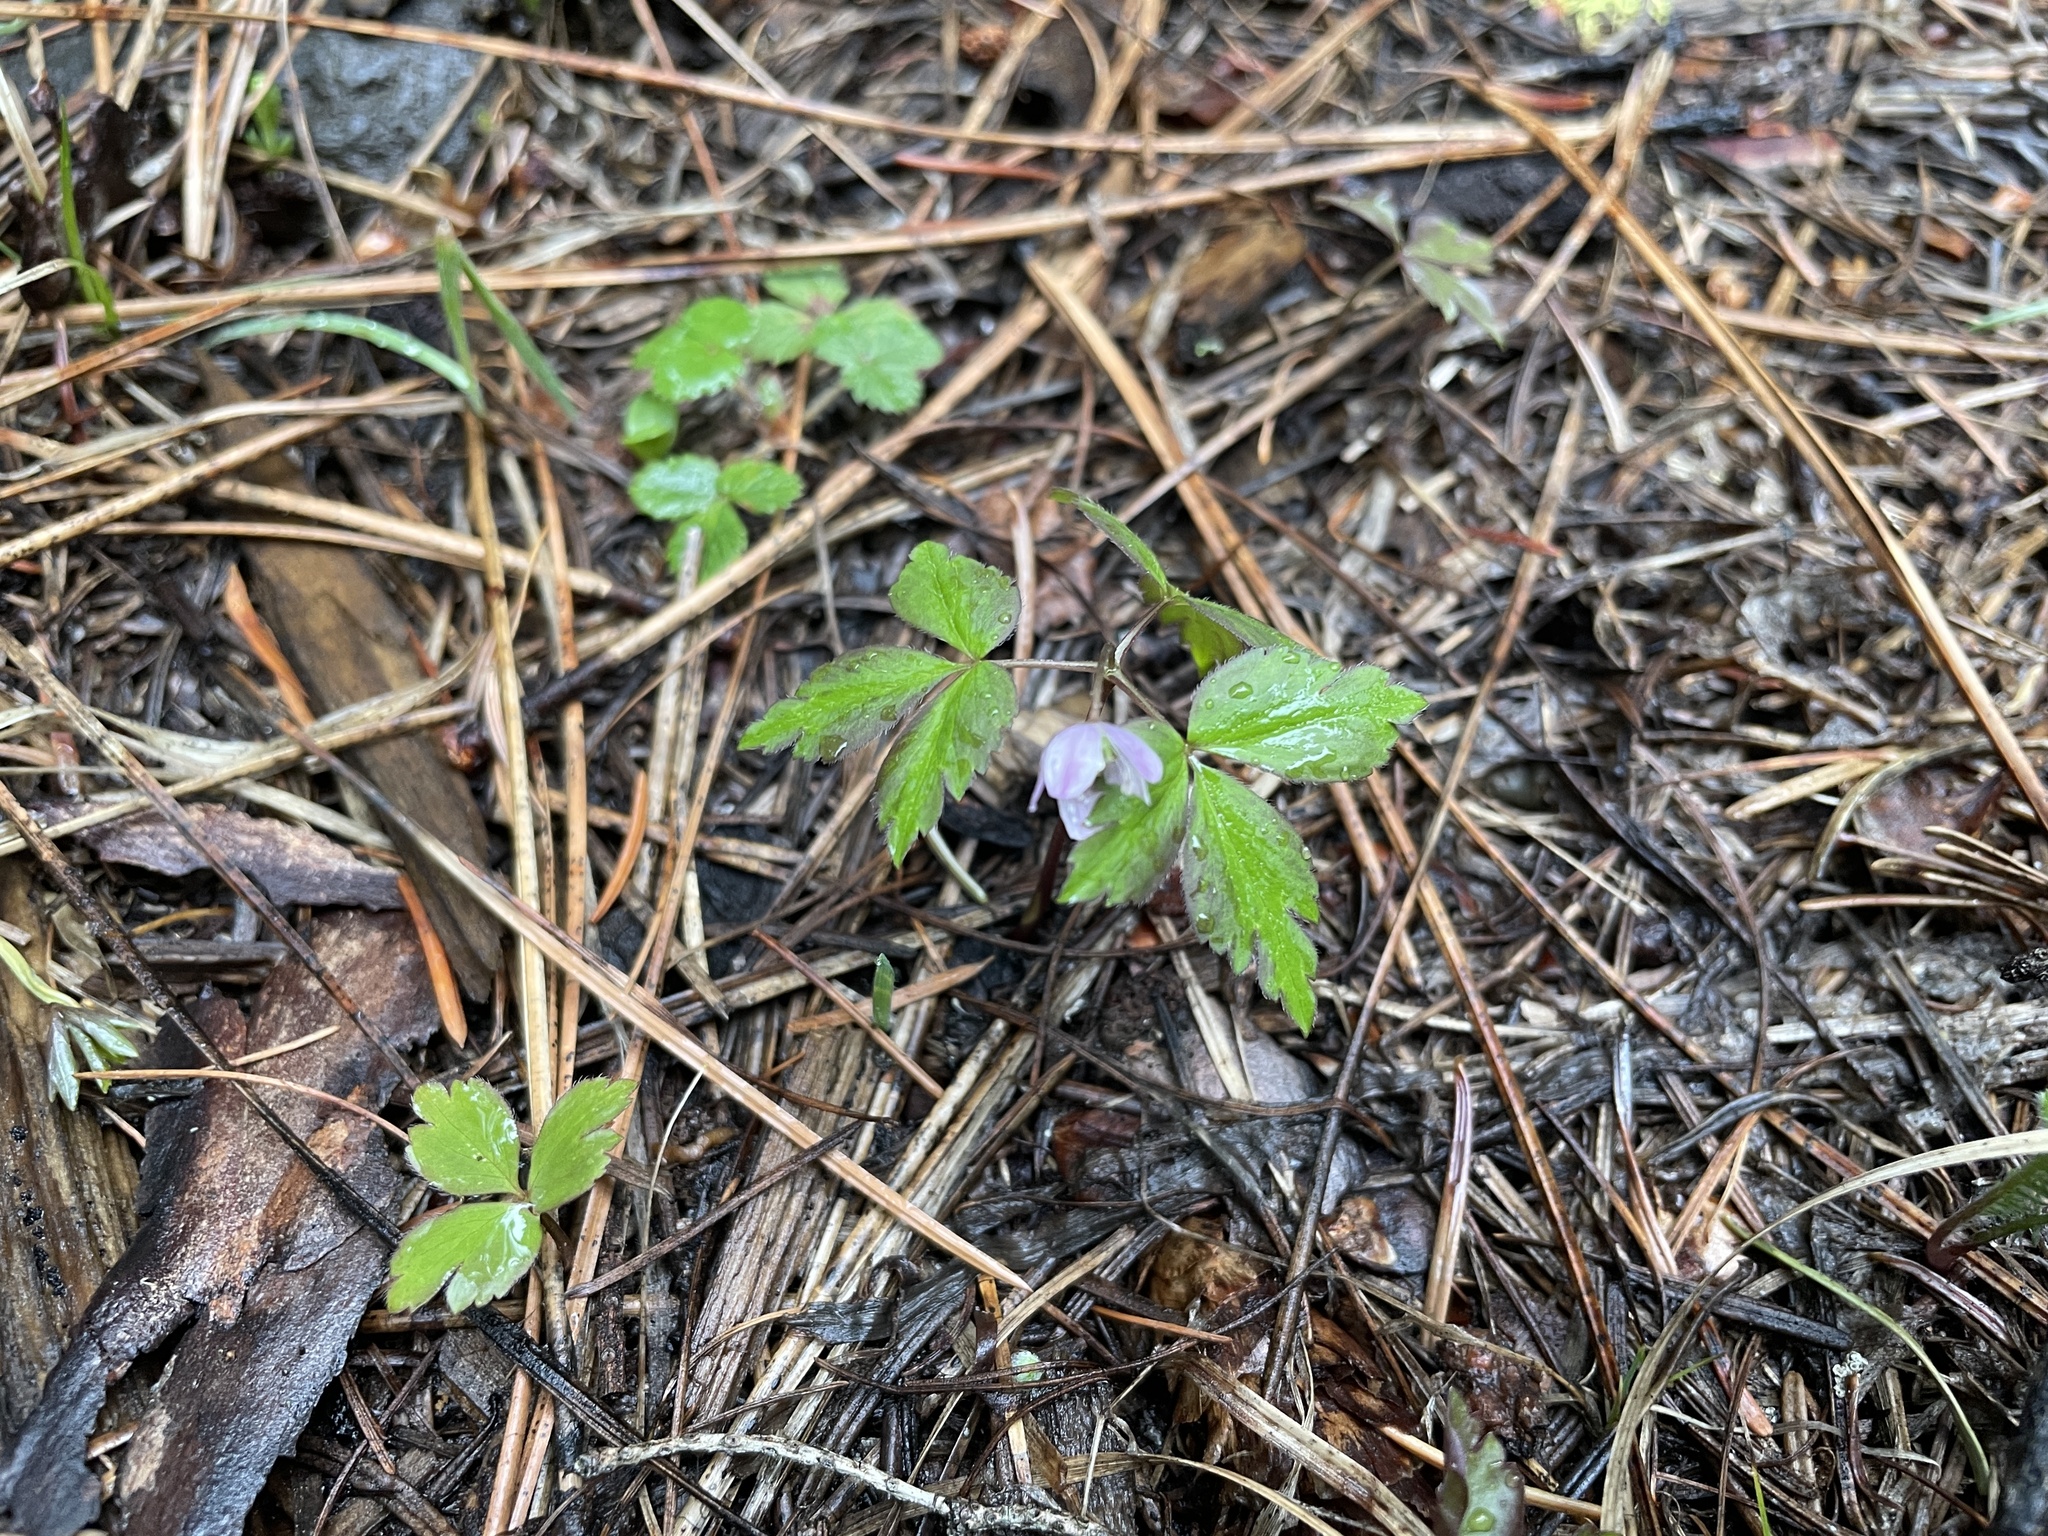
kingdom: Plantae
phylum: Tracheophyta
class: Magnoliopsida
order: Ranunculales
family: Ranunculaceae
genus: Anemone
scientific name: Anemone
